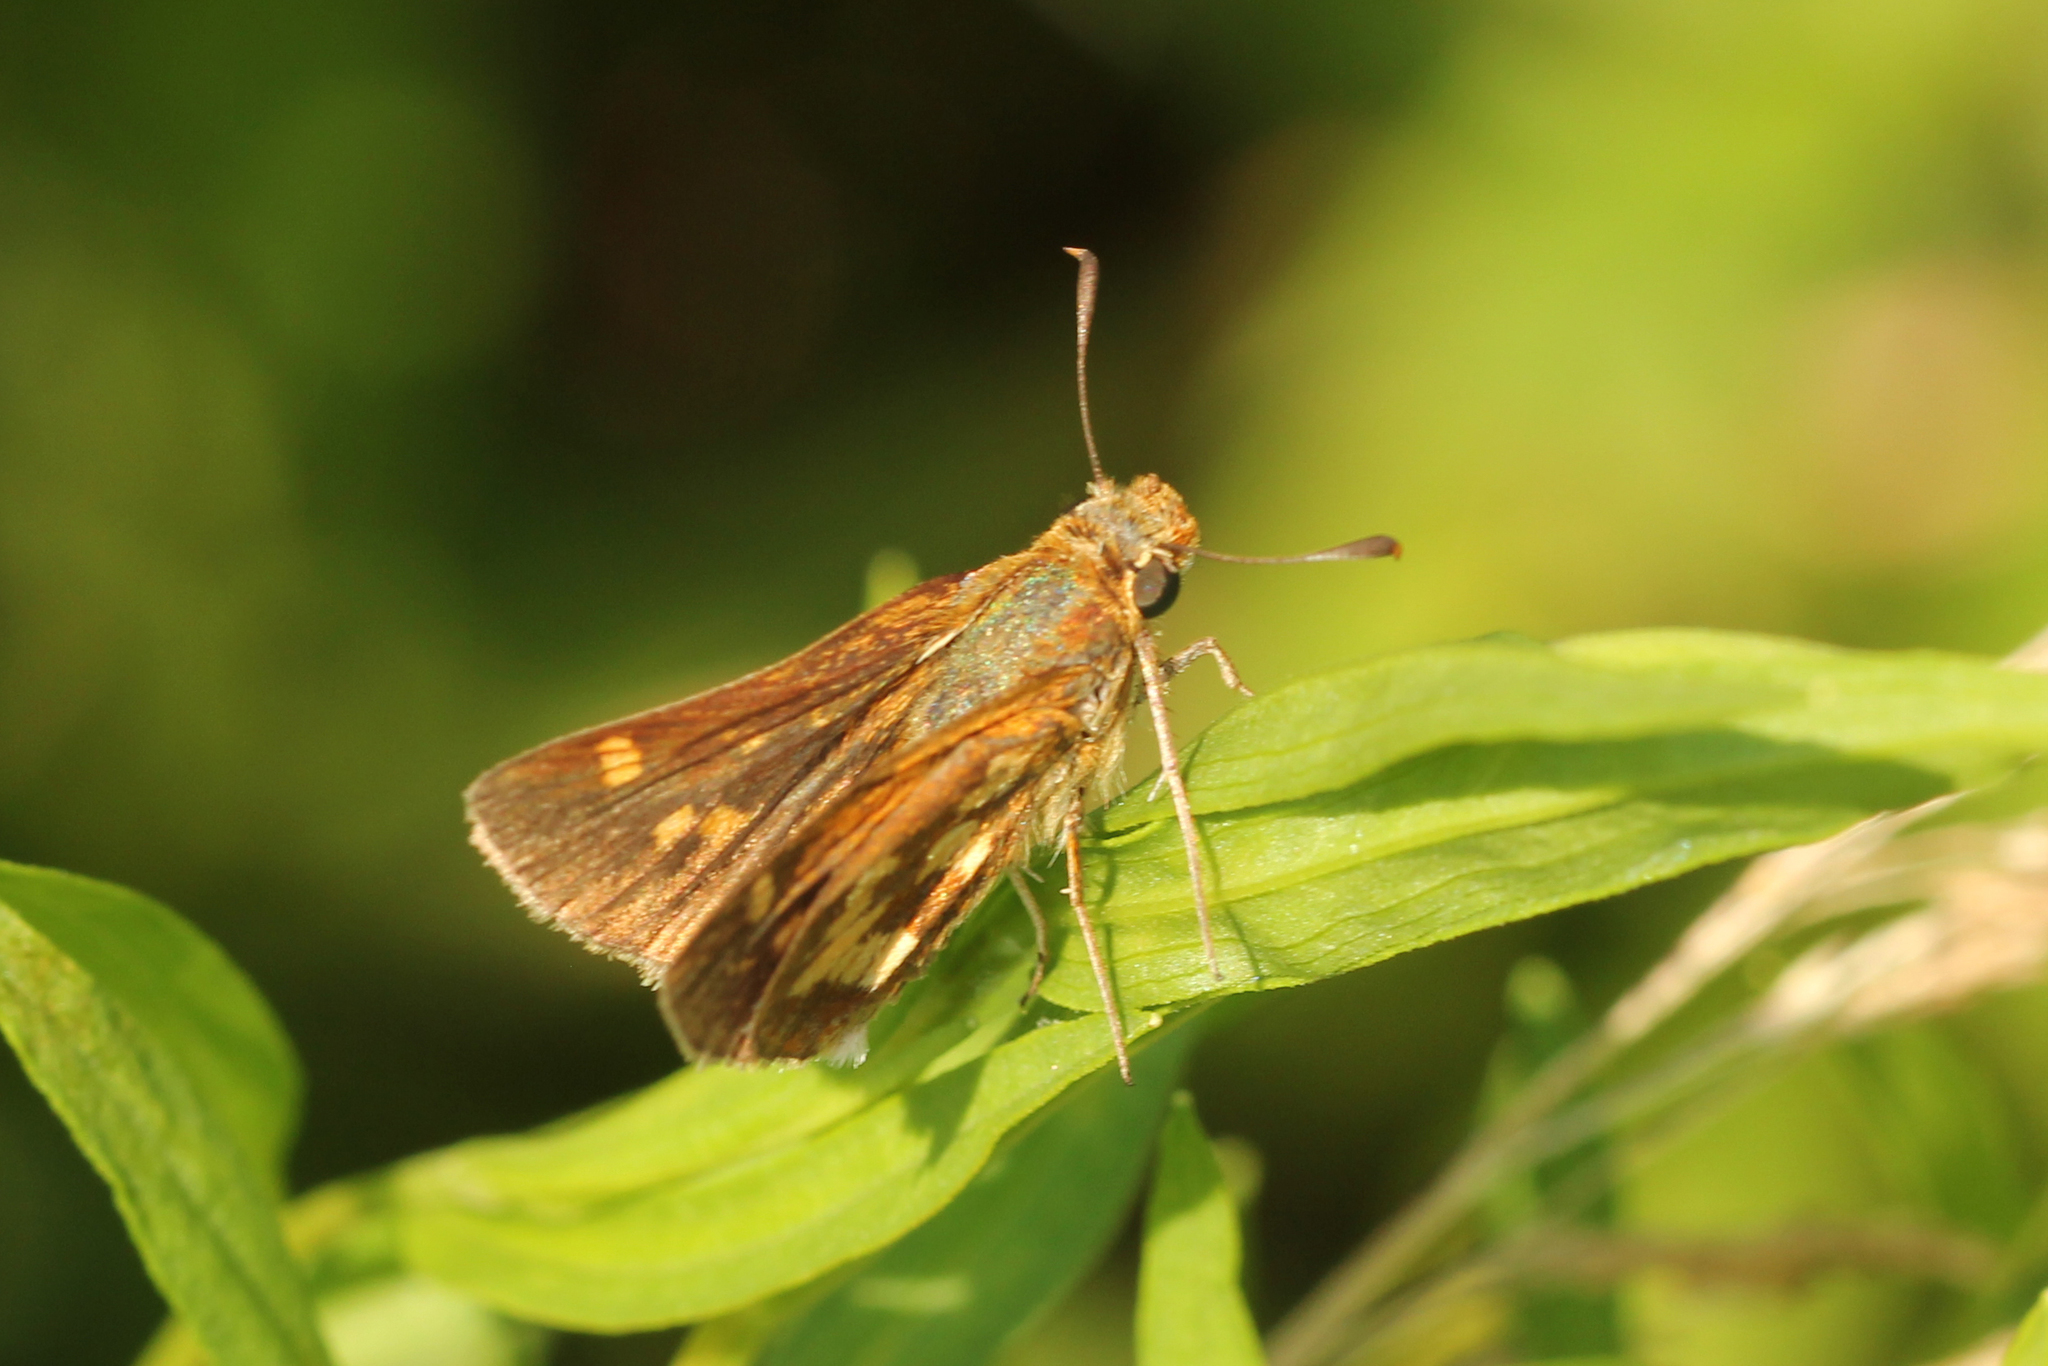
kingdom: Animalia
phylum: Arthropoda
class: Insecta
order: Lepidoptera
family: Hesperiidae
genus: Polites
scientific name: Polites coras
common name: Peck's skipper
